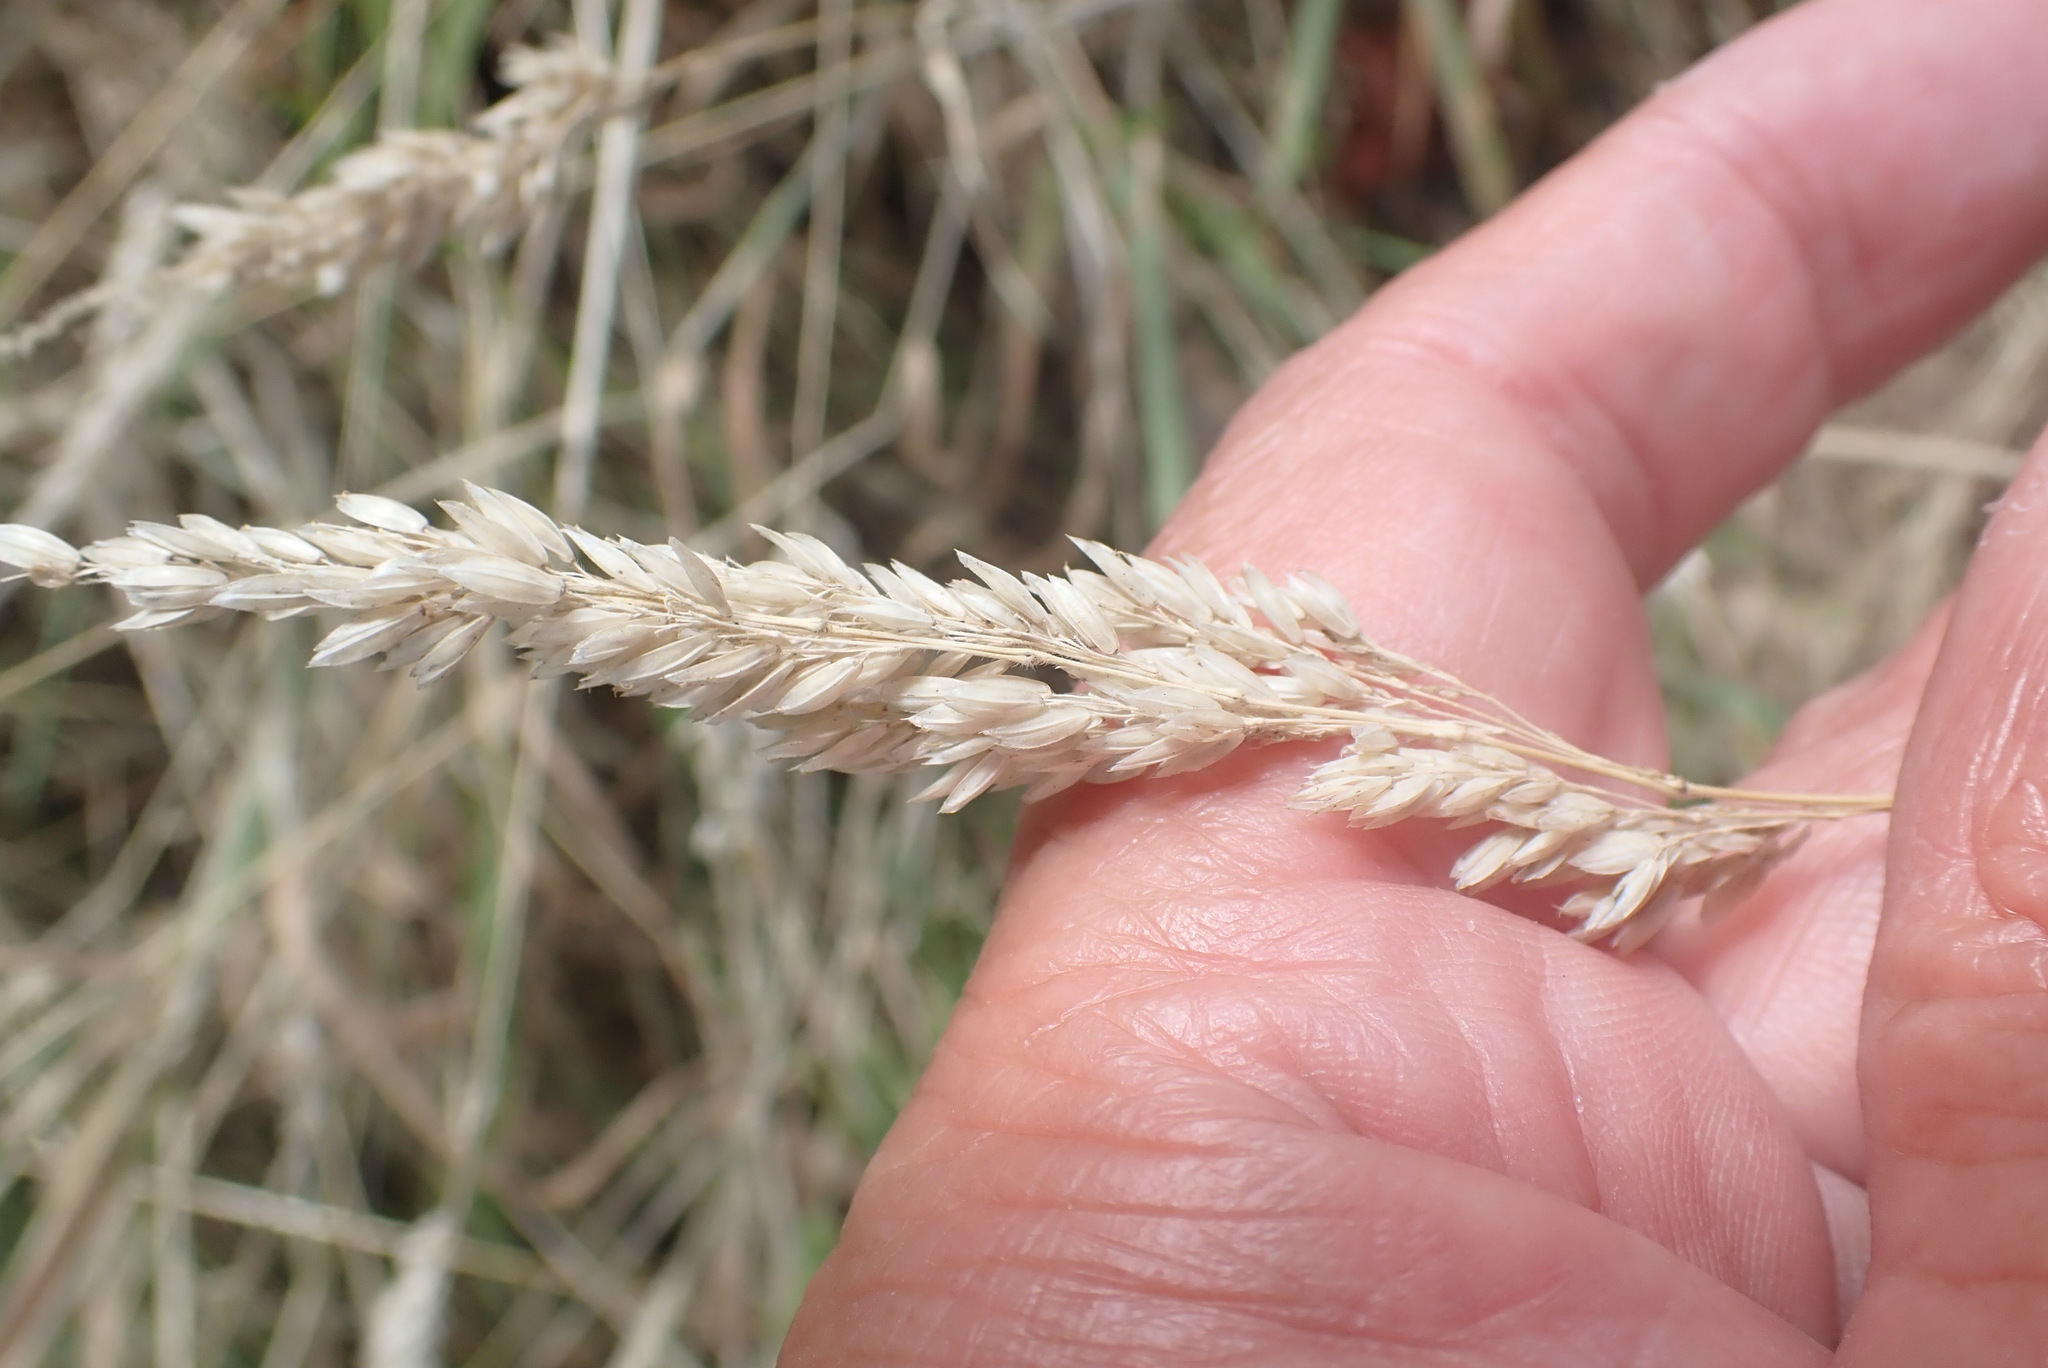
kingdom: Plantae
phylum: Tracheophyta
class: Liliopsida
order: Poales
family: Poaceae
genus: Holcus
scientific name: Holcus lanatus
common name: Yorkshire-fog
